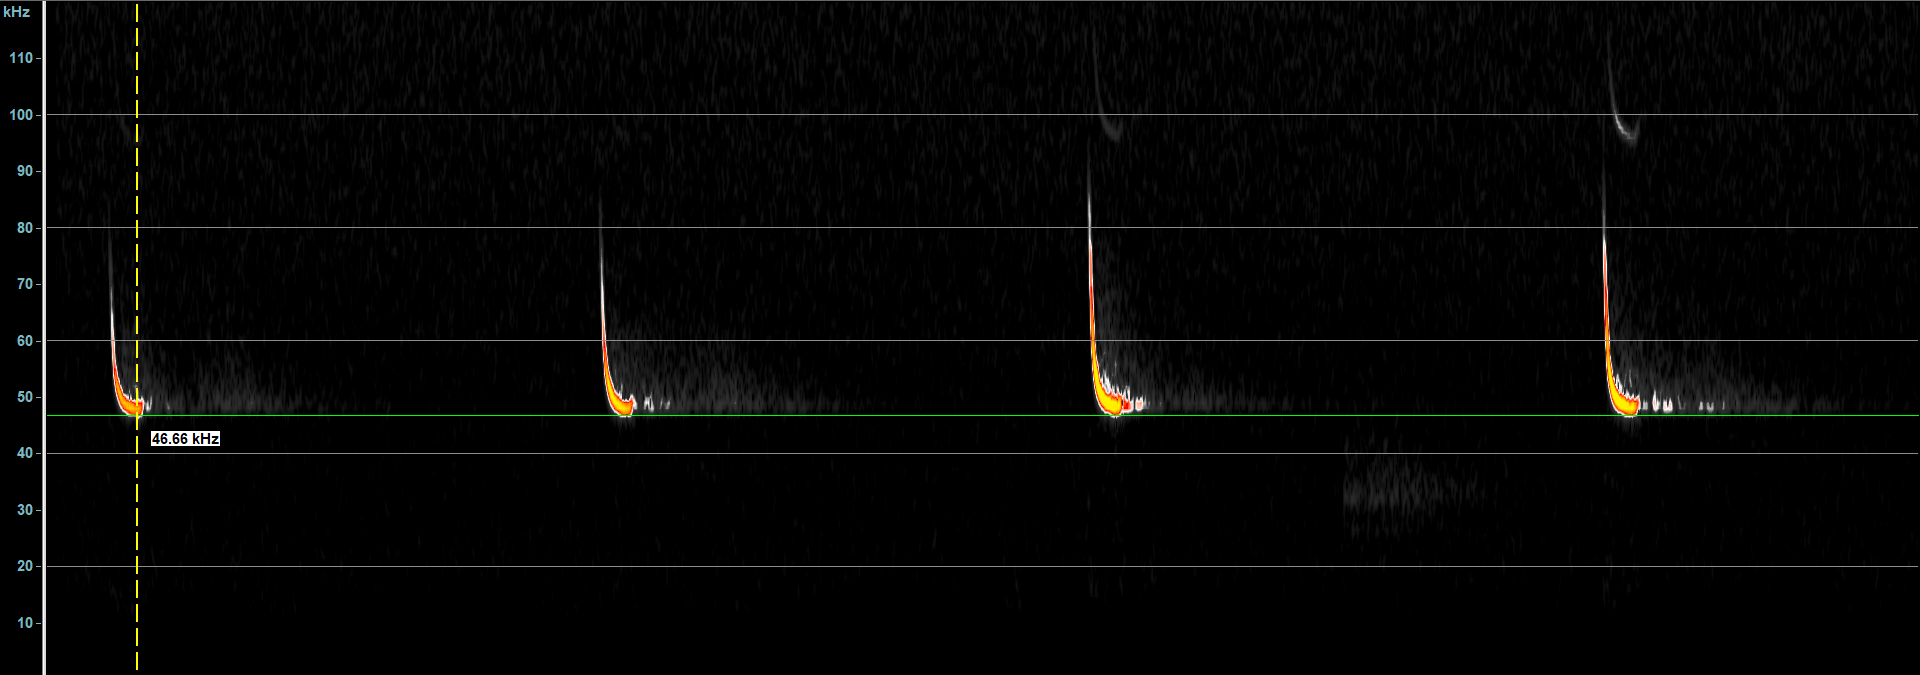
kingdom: Animalia
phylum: Chordata
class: Mammalia
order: Chiroptera
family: Vespertilionidae
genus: Pipistrellus
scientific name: Pipistrellus pipistrellus
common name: Common pipistrelle
